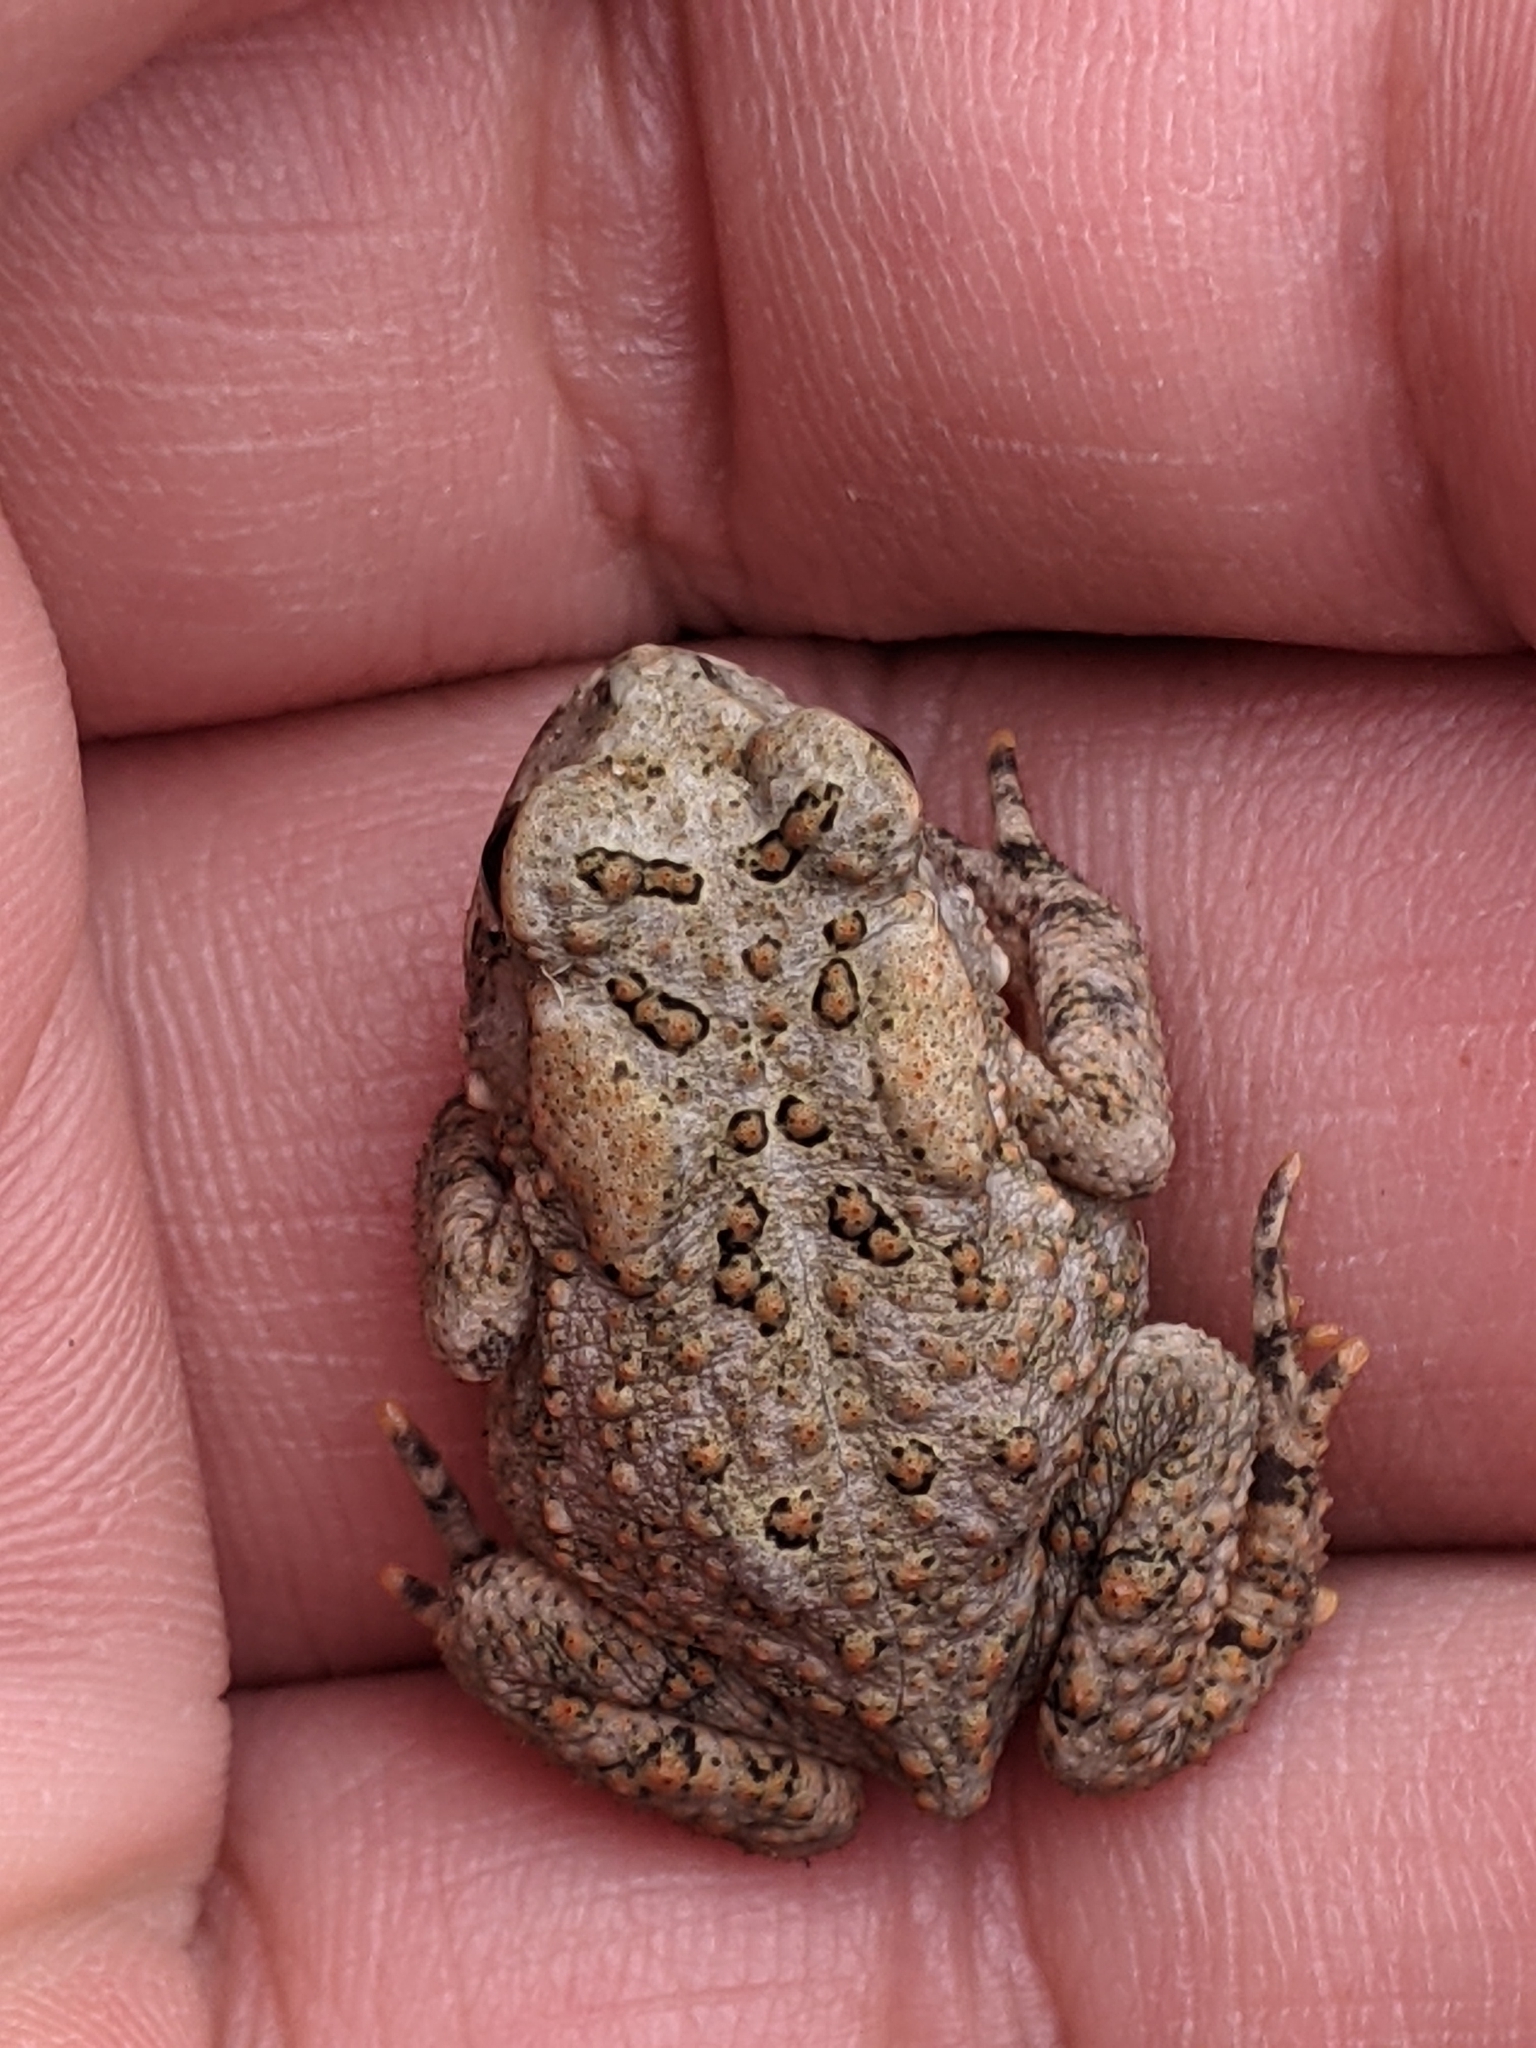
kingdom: Animalia
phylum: Chordata
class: Amphibia
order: Anura
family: Bufonidae
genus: Anaxyrus
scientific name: Anaxyrus americanus
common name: American toad
